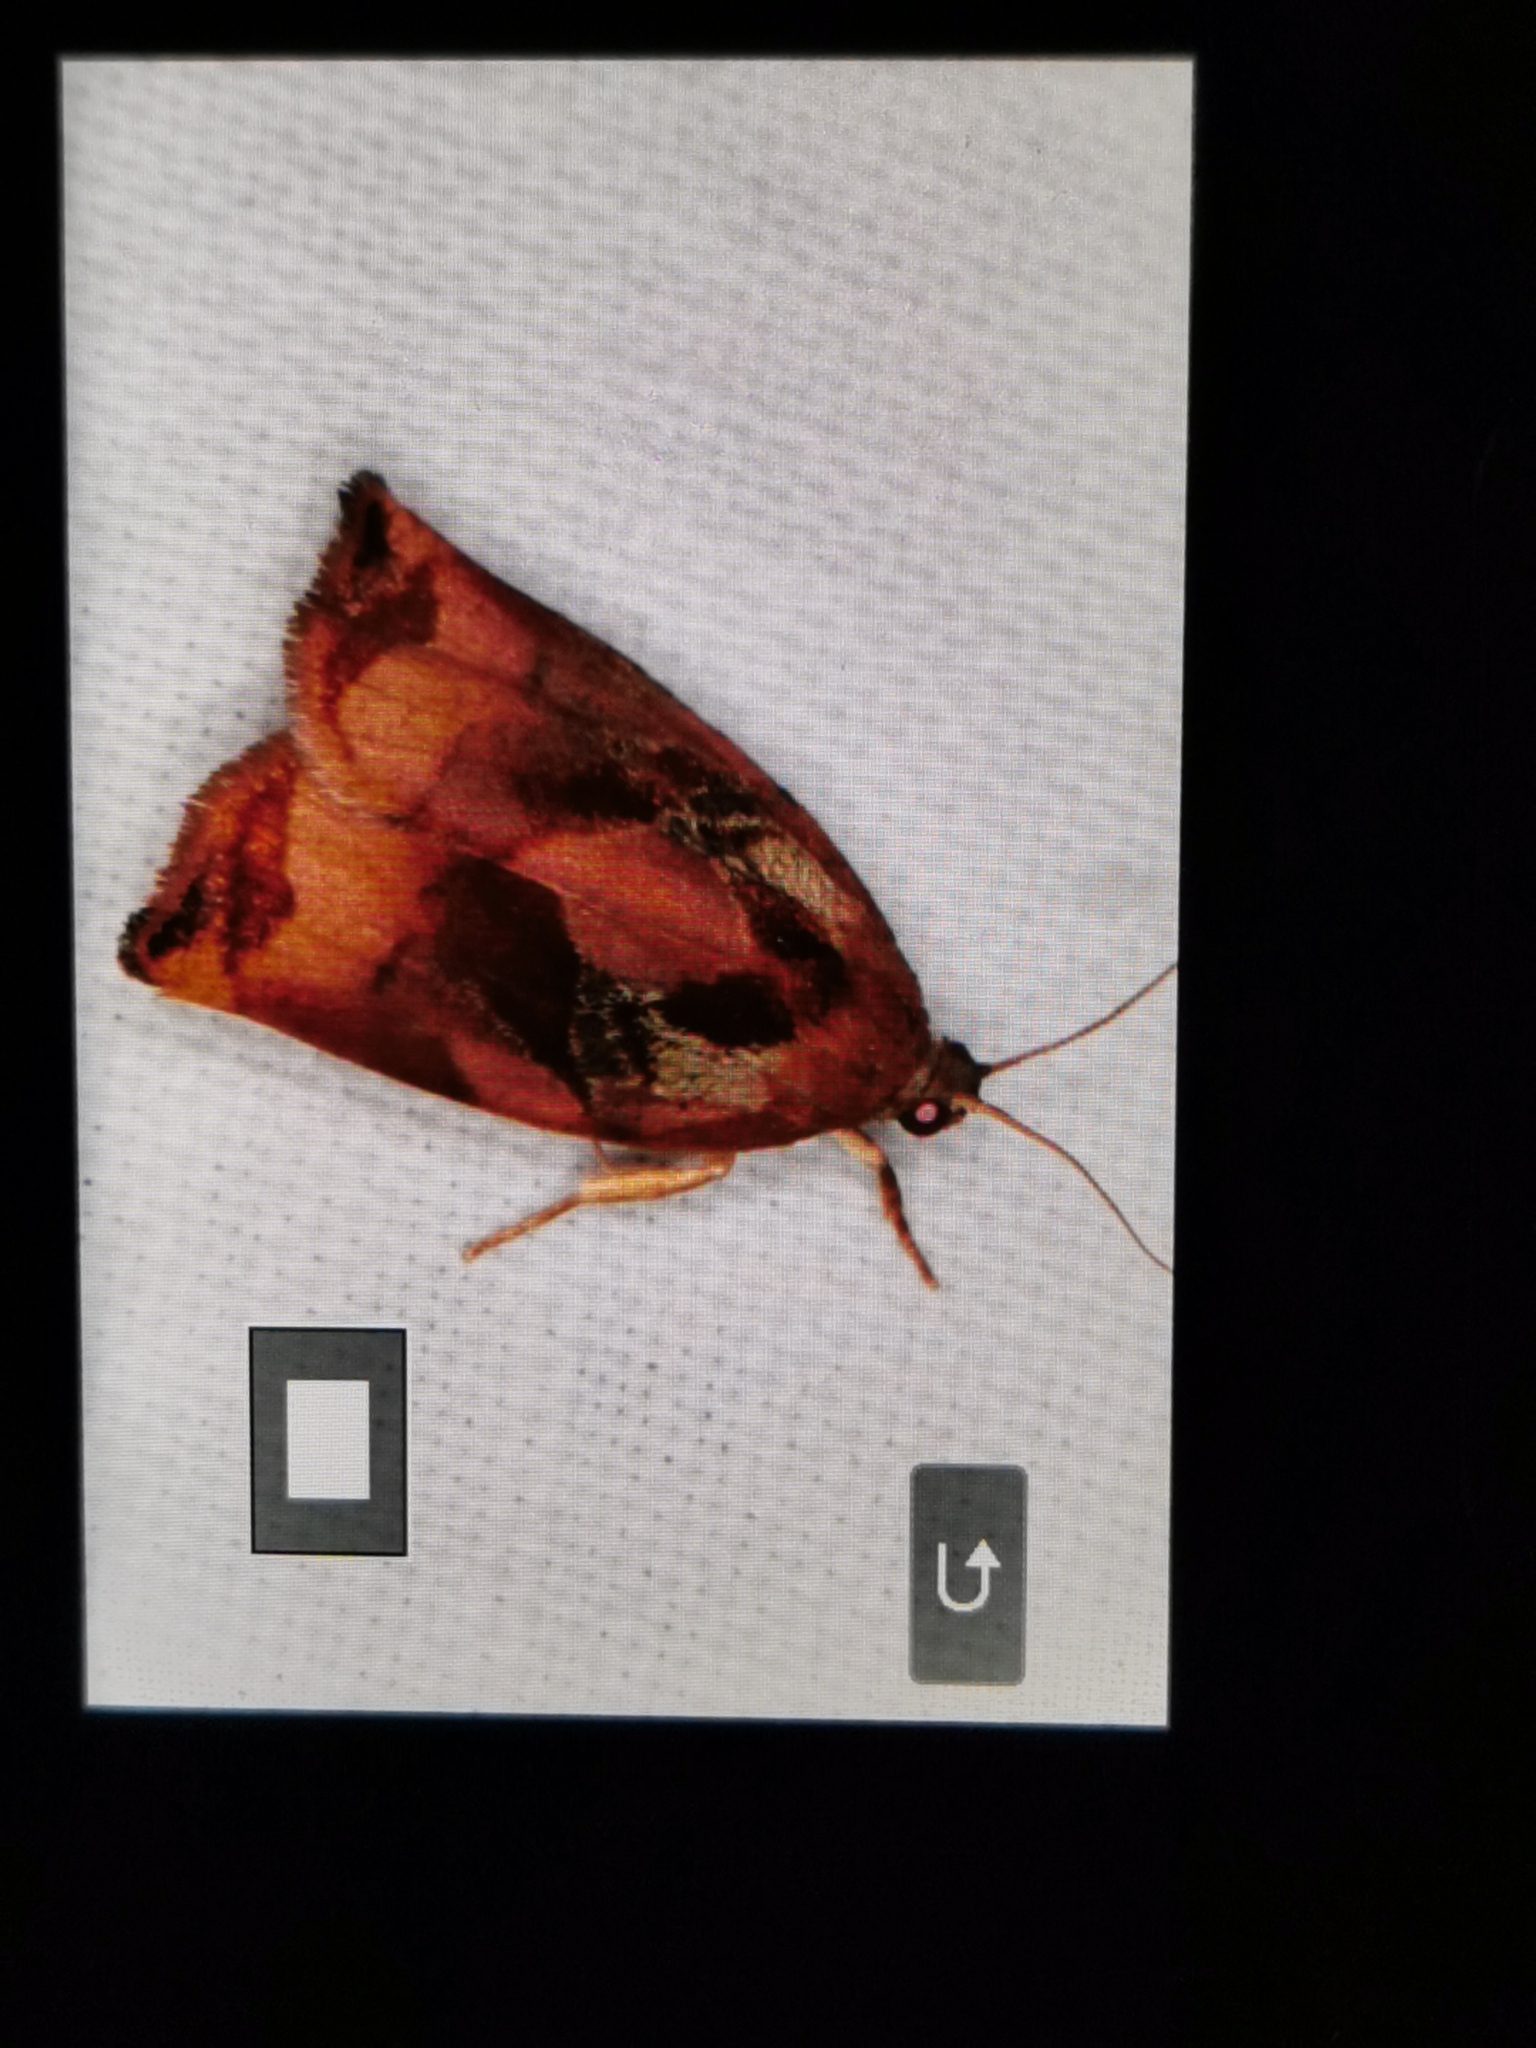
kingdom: Animalia
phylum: Arthropoda
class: Insecta
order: Lepidoptera
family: Tortricidae
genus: Archips
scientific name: Archips podana
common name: Large fruit-tree tortrix
